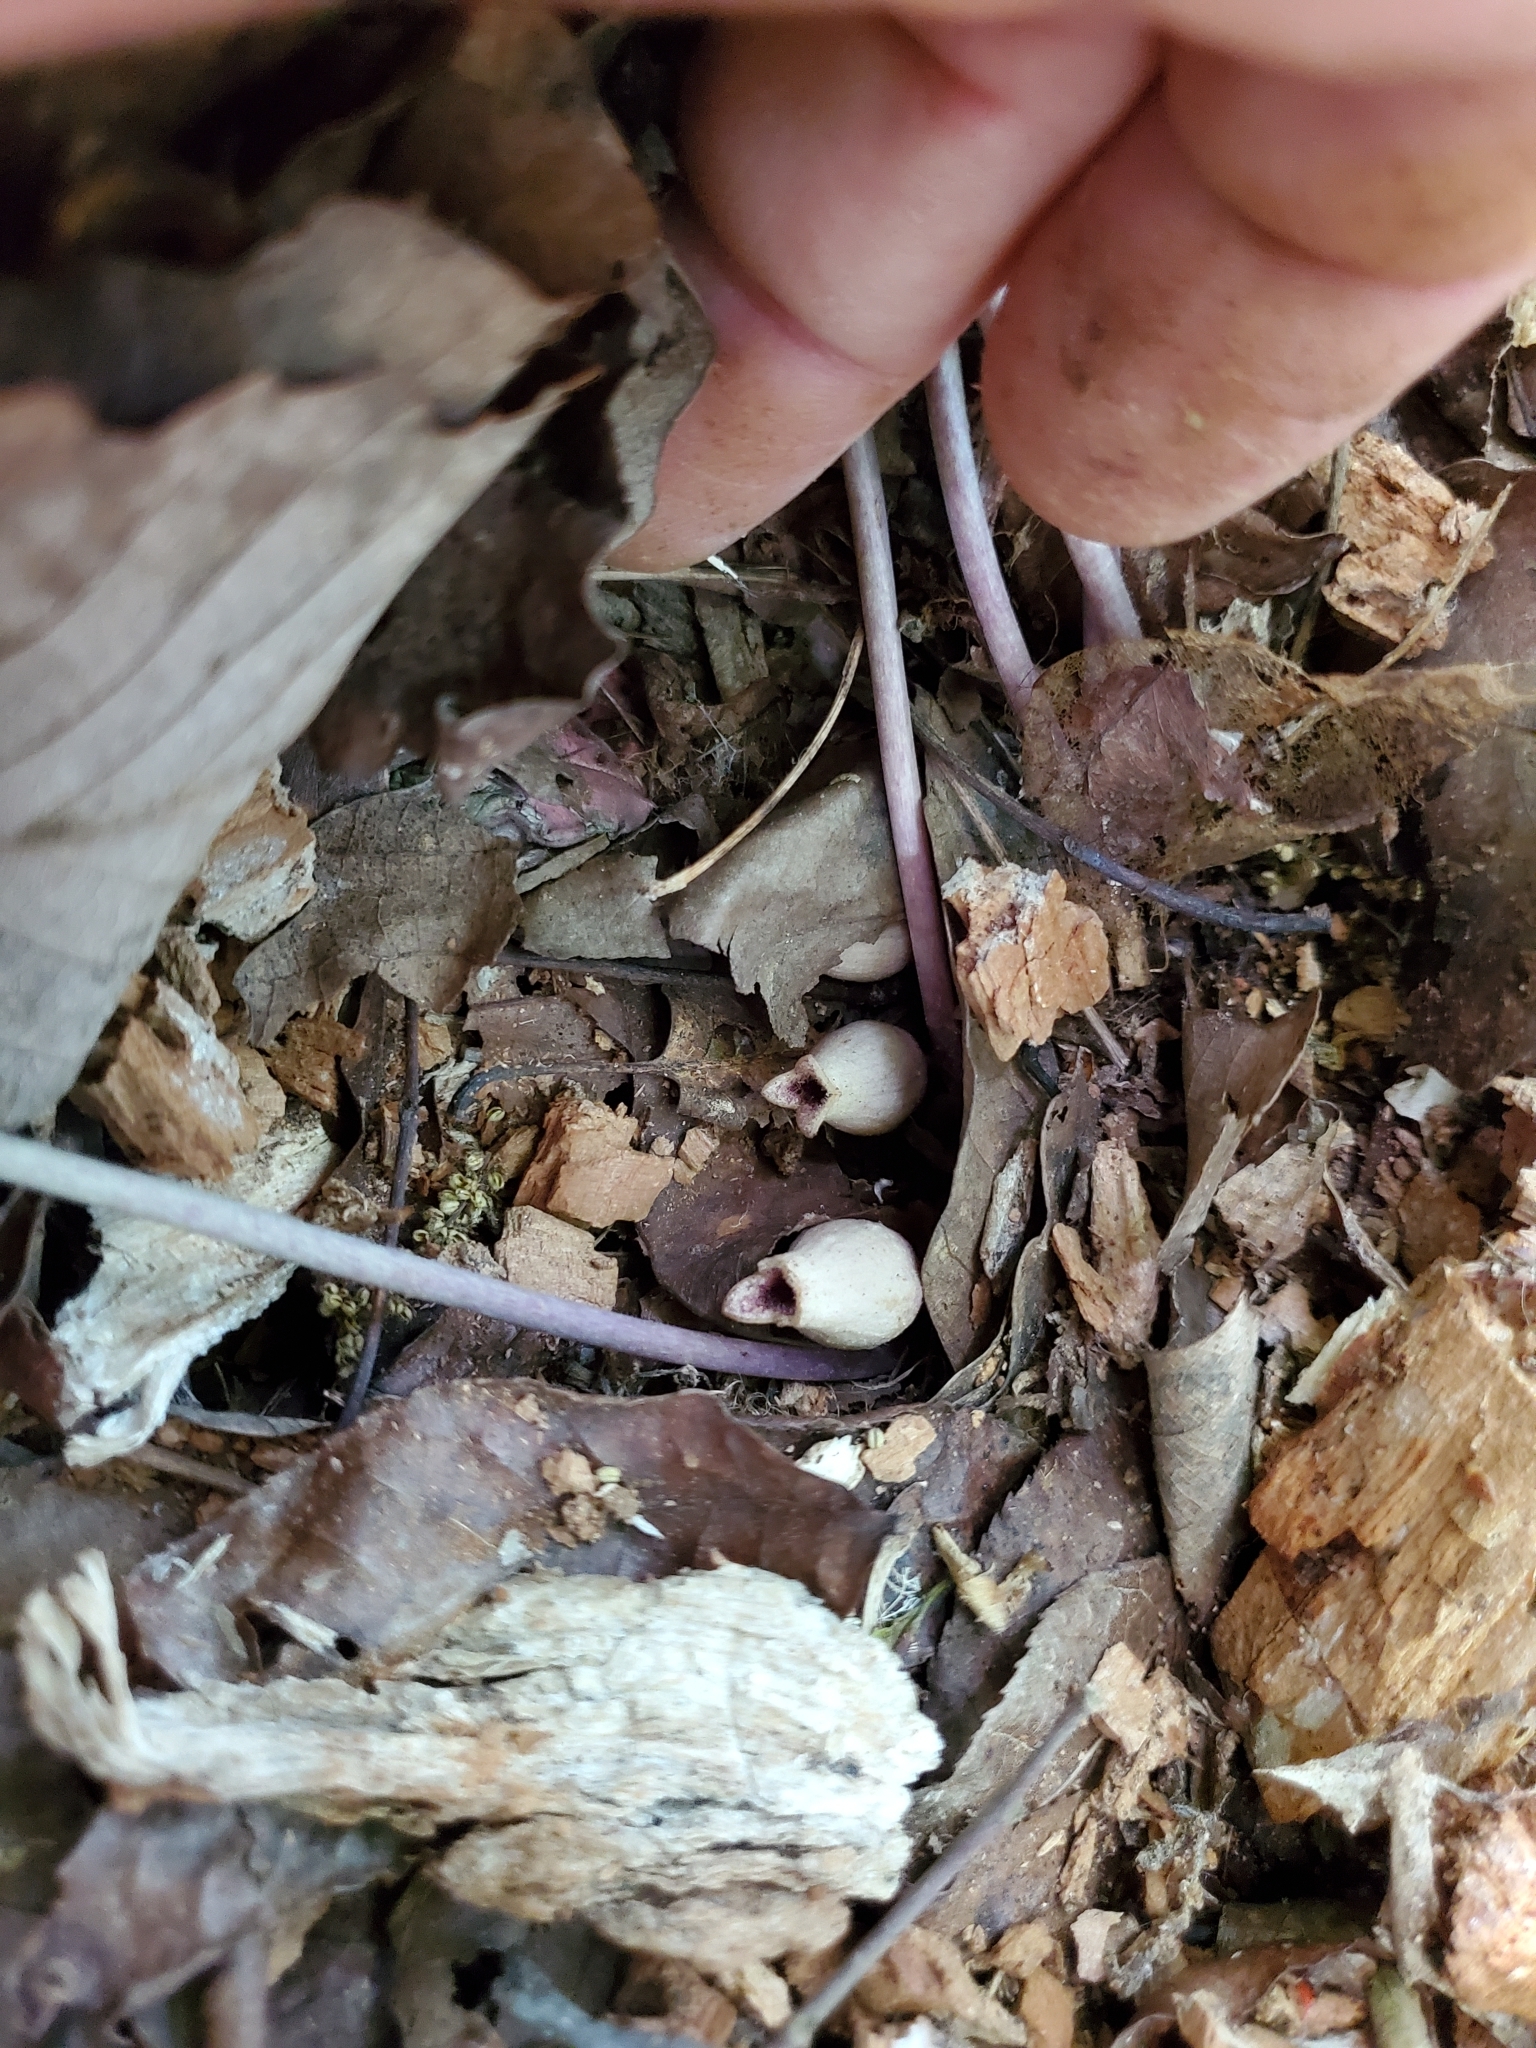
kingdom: Plantae
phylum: Tracheophyta
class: Magnoliopsida
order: Piperales
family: Aristolochiaceae
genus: Hexastylis
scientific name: Hexastylis arifolia
